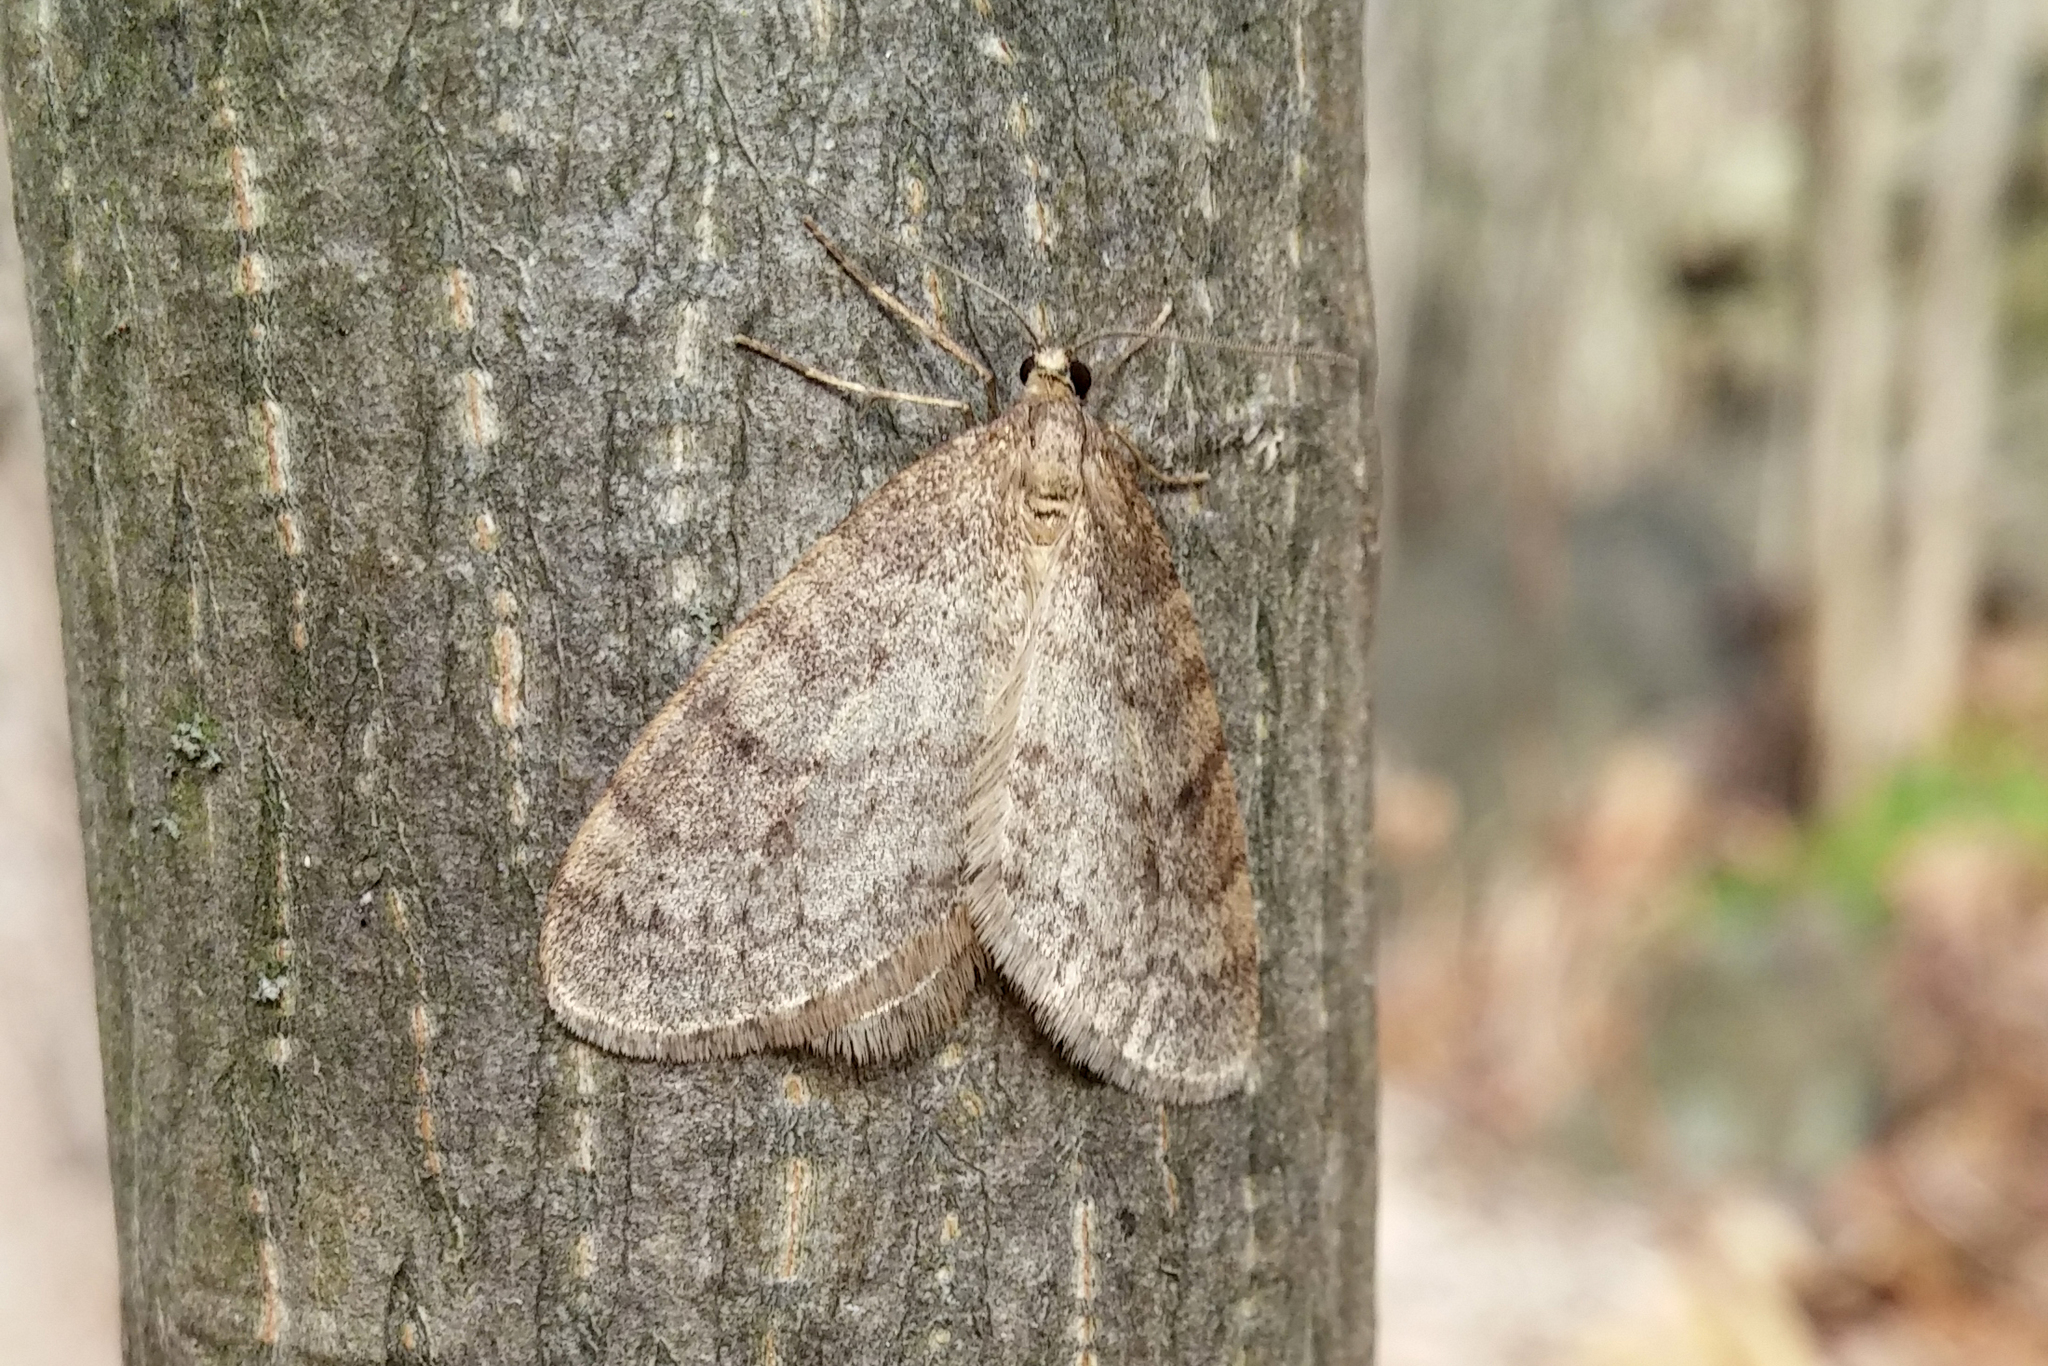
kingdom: Animalia
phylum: Arthropoda
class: Insecta
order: Lepidoptera
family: Geometridae
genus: Operophtera
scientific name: Operophtera bruceata
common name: Bruce spanworm
